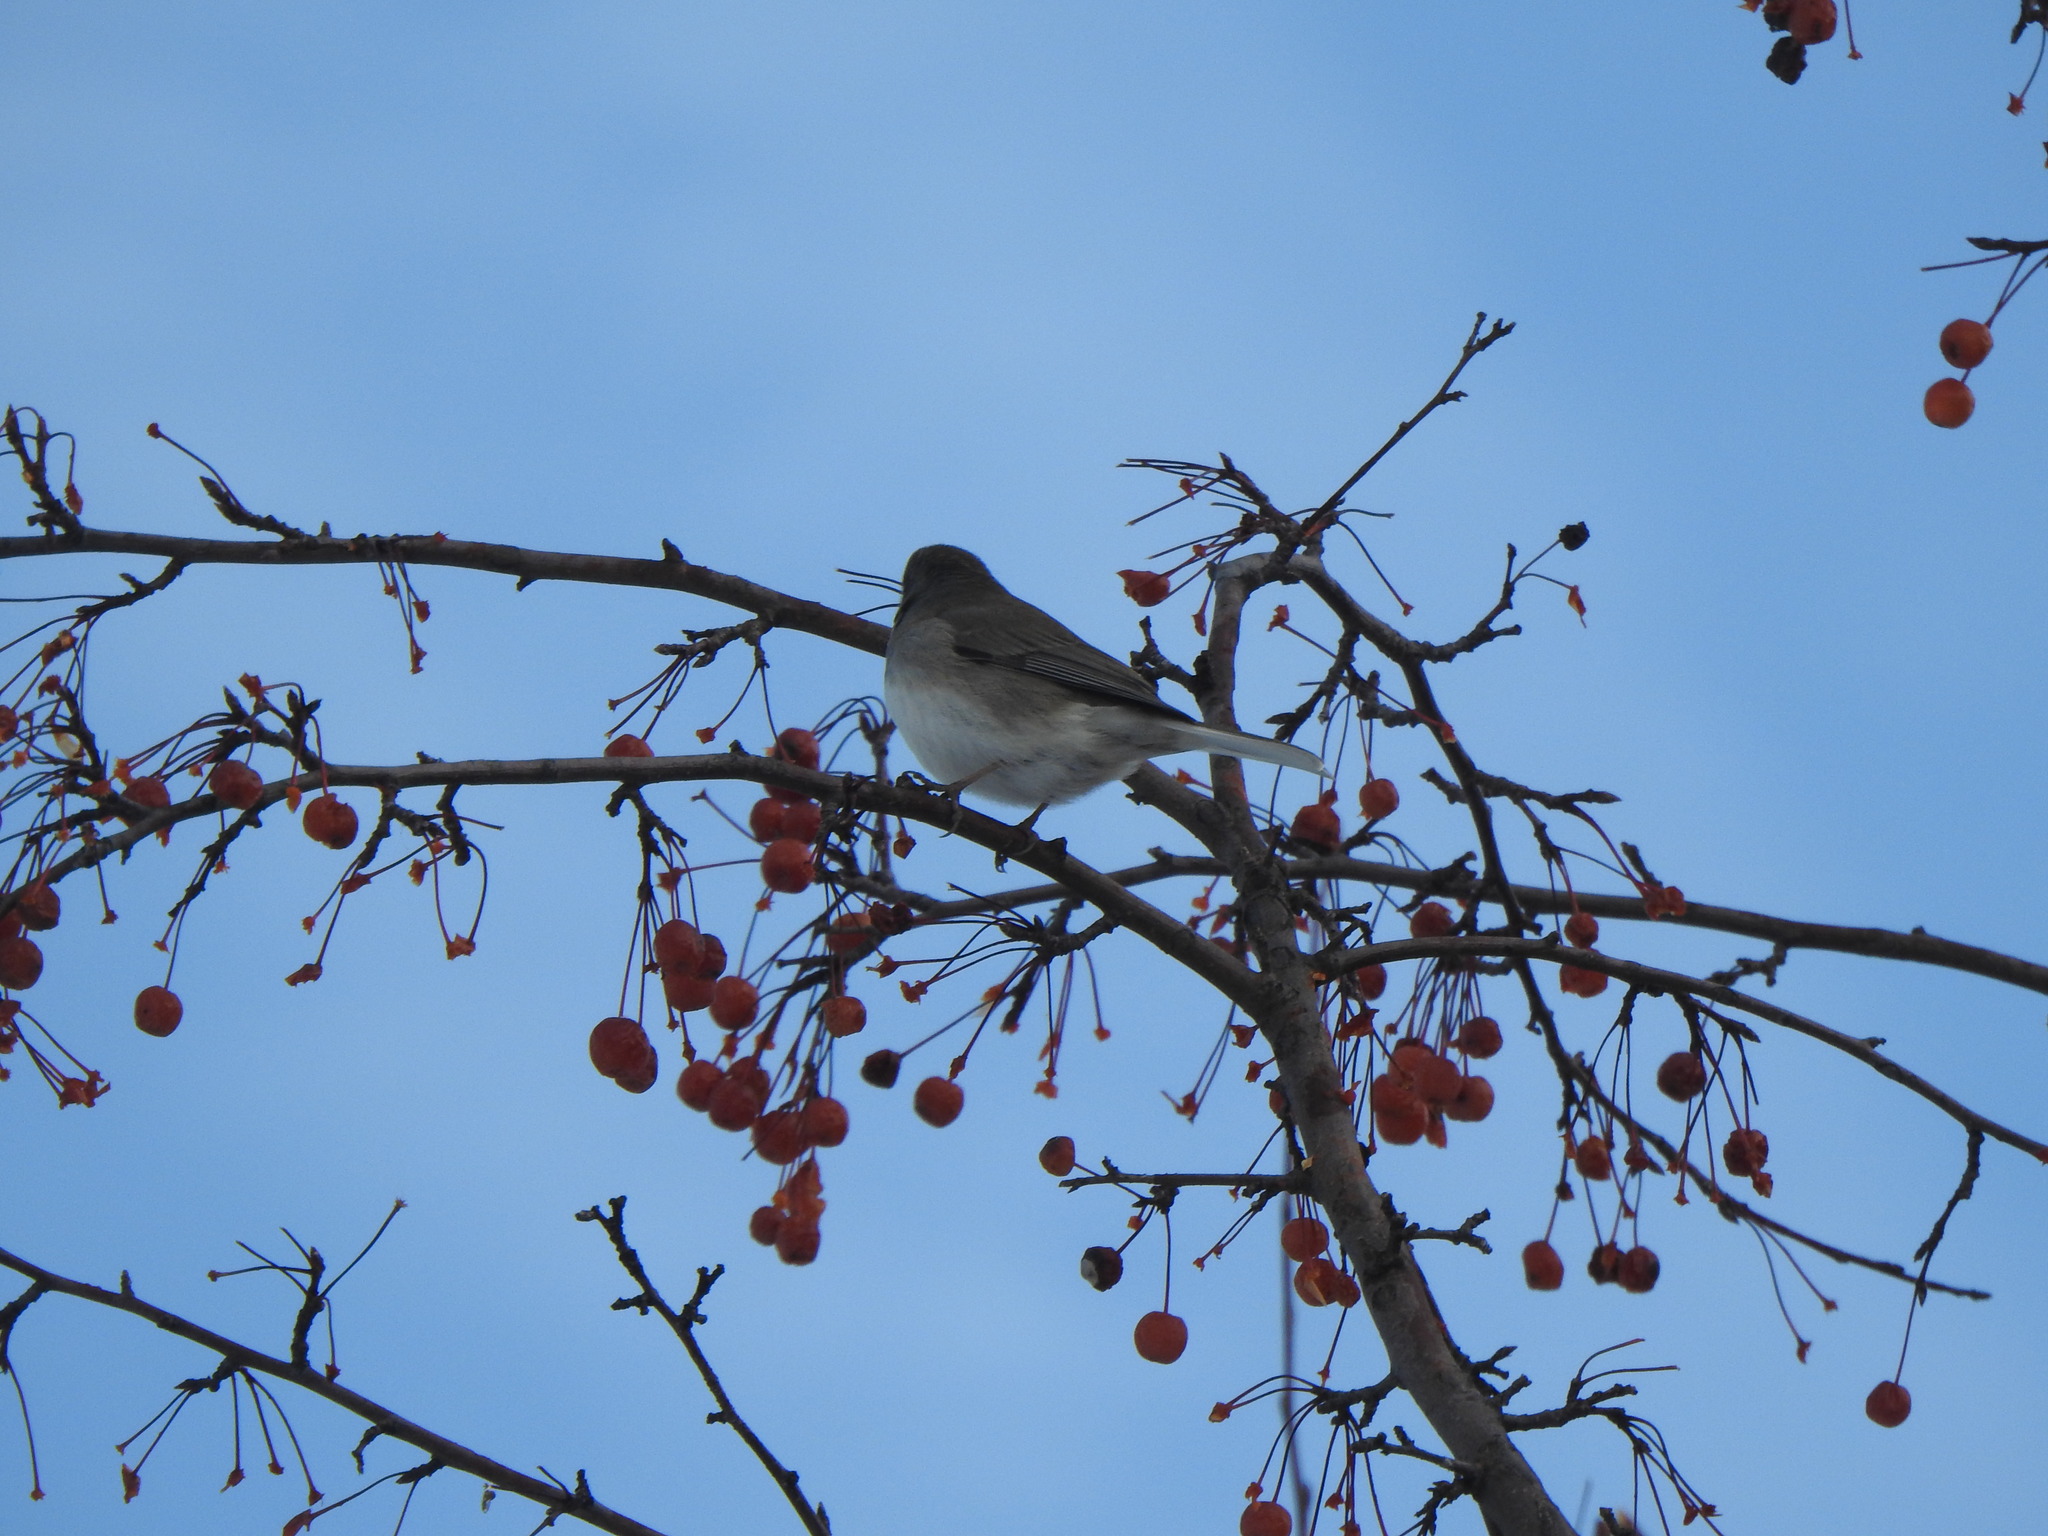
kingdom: Animalia
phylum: Chordata
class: Aves
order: Passeriformes
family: Passerellidae
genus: Junco
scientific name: Junco hyemalis
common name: Dark-eyed junco
